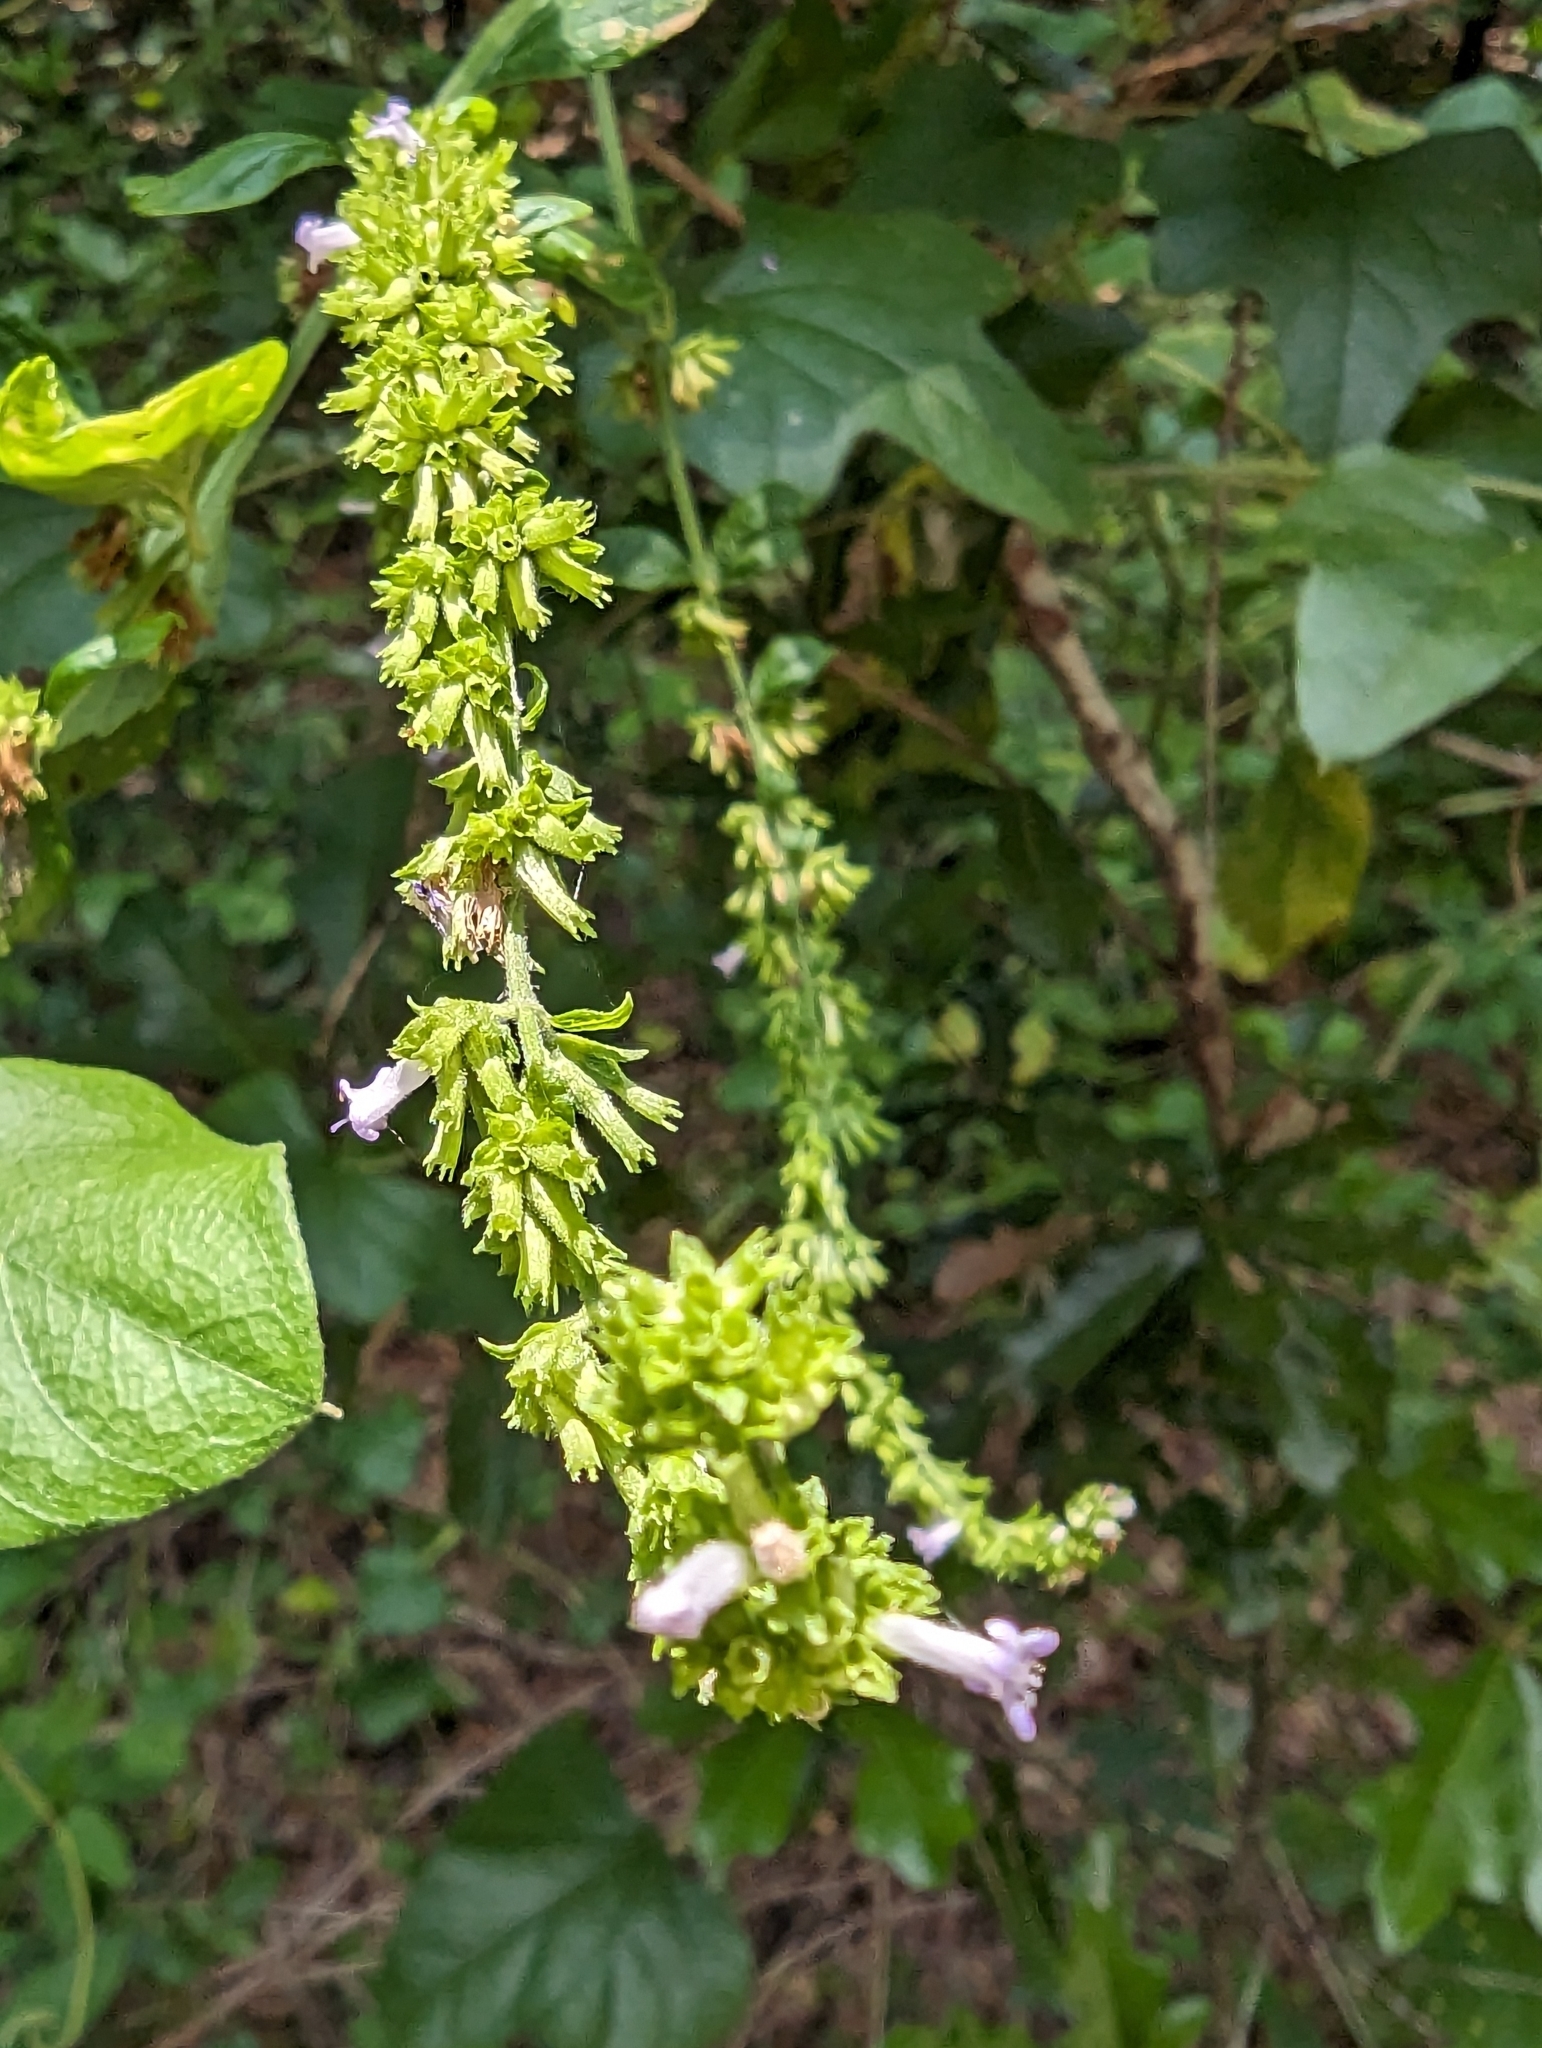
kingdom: Plantae
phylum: Tracheophyta
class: Magnoliopsida
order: Lamiales
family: Lamiaceae
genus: Cantinoa
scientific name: Cantinoa mutabilis
